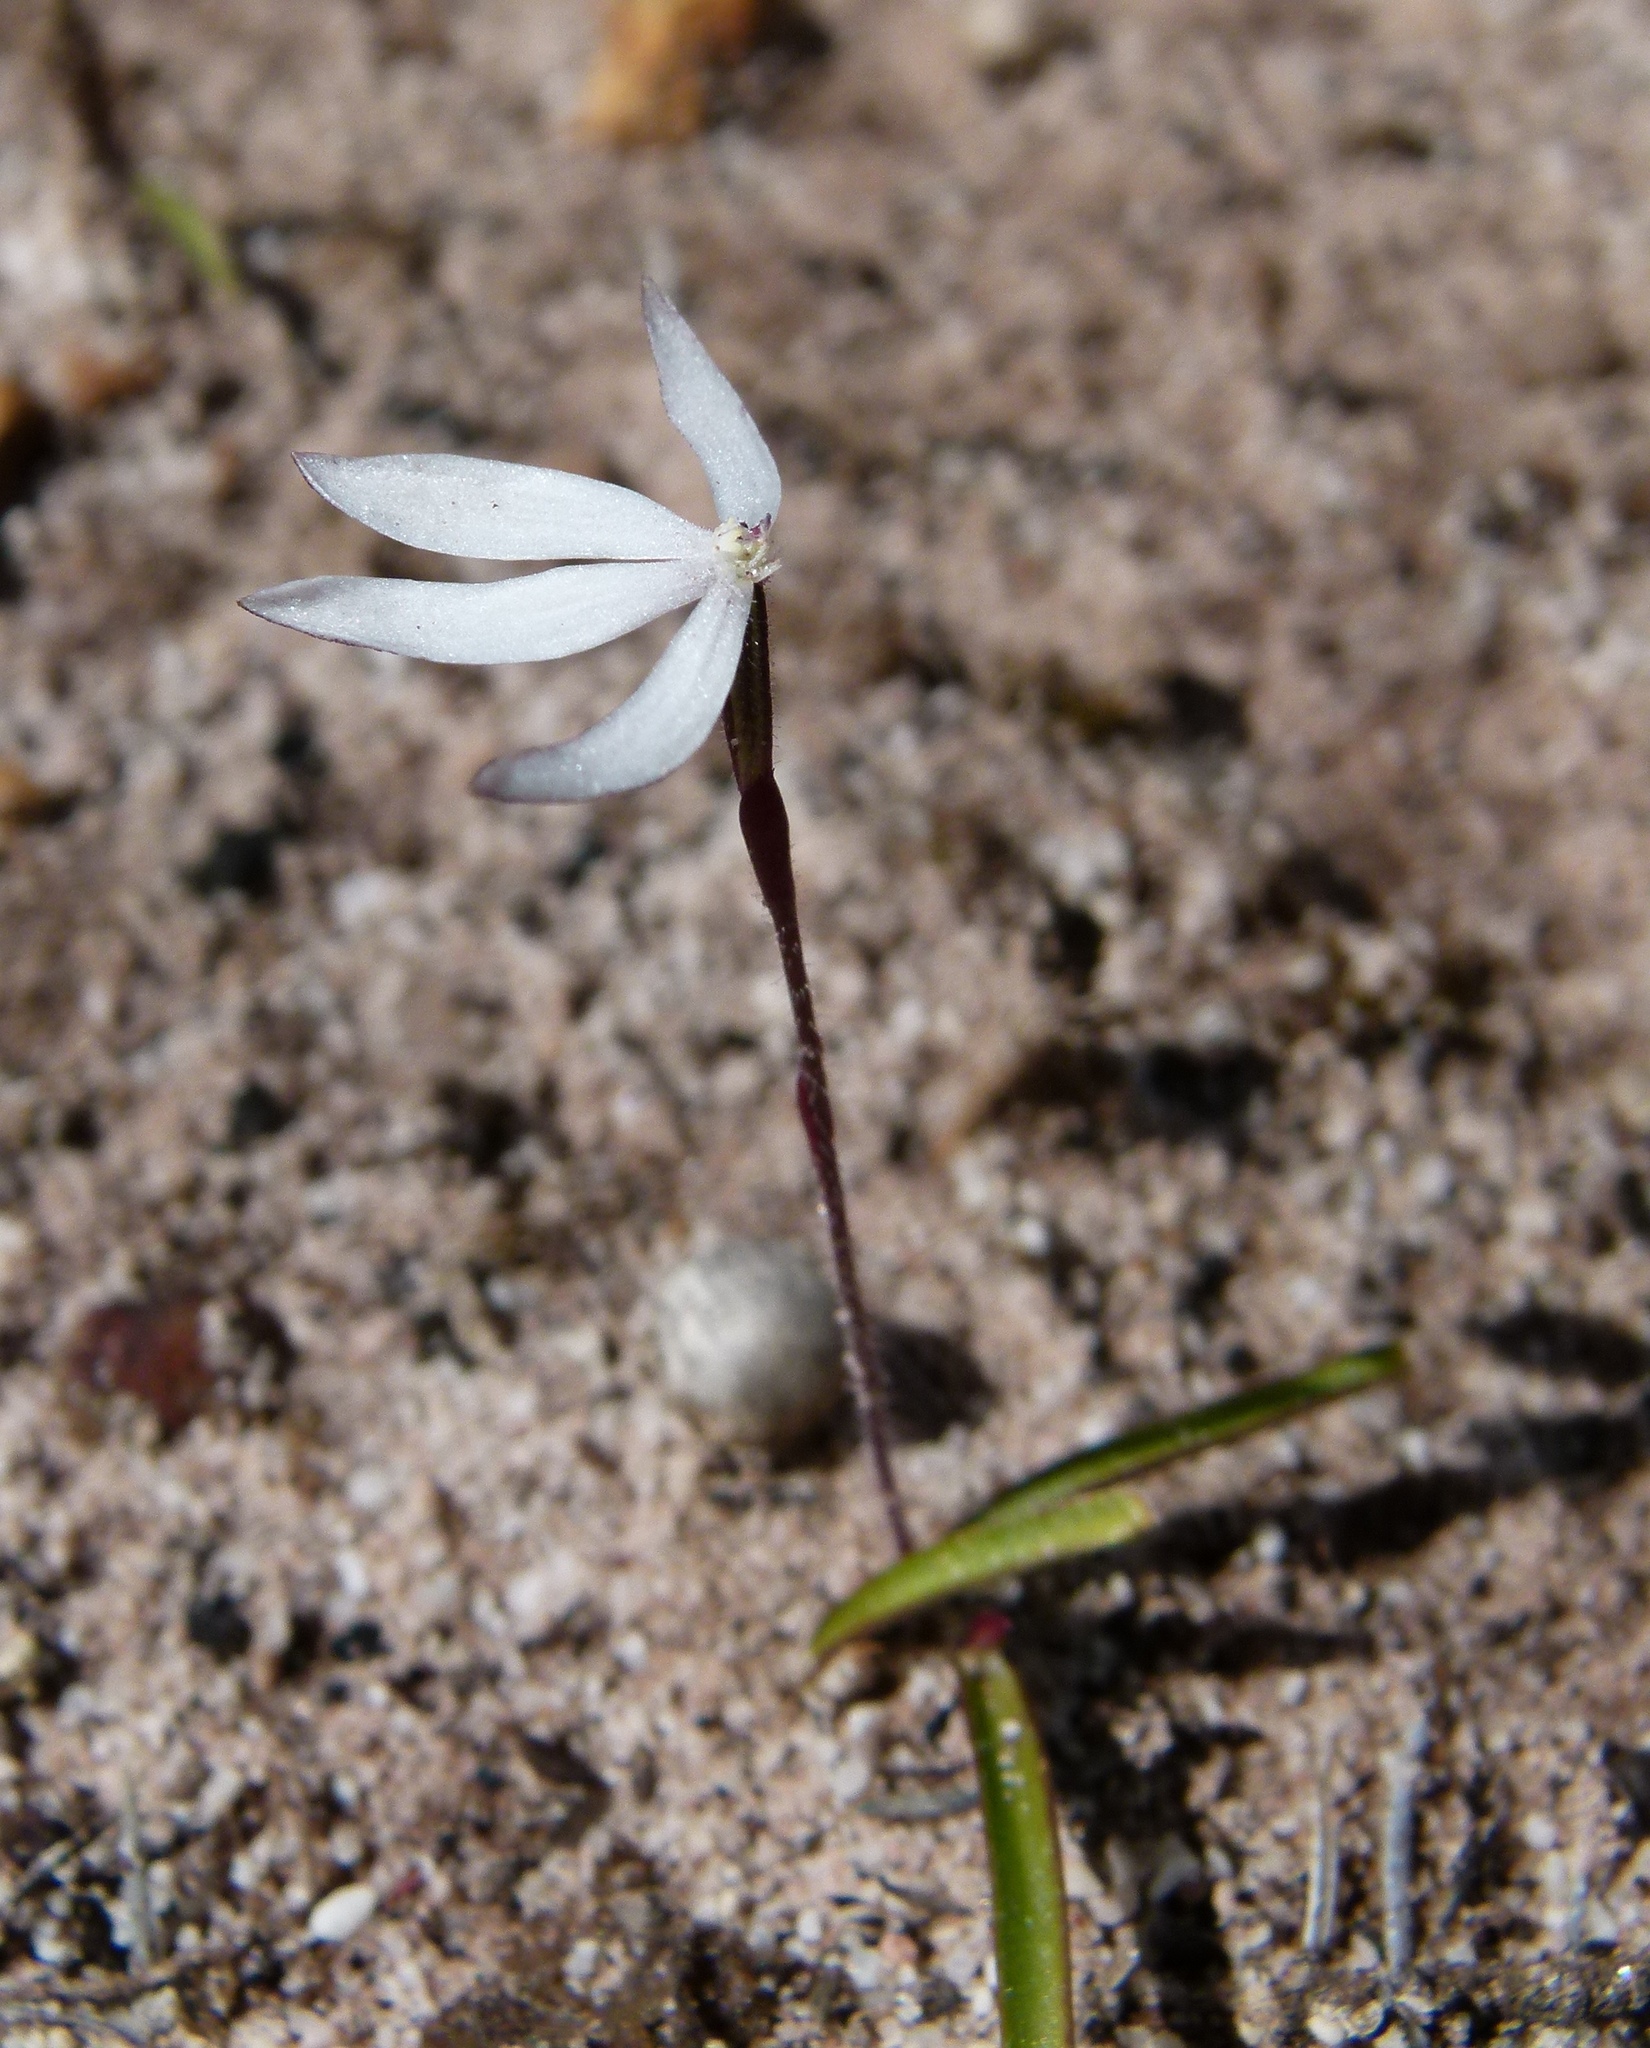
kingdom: Plantae
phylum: Tracheophyta
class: Liliopsida
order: Asparagales
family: Orchidaceae
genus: Caladenia
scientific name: Caladenia saccharata
